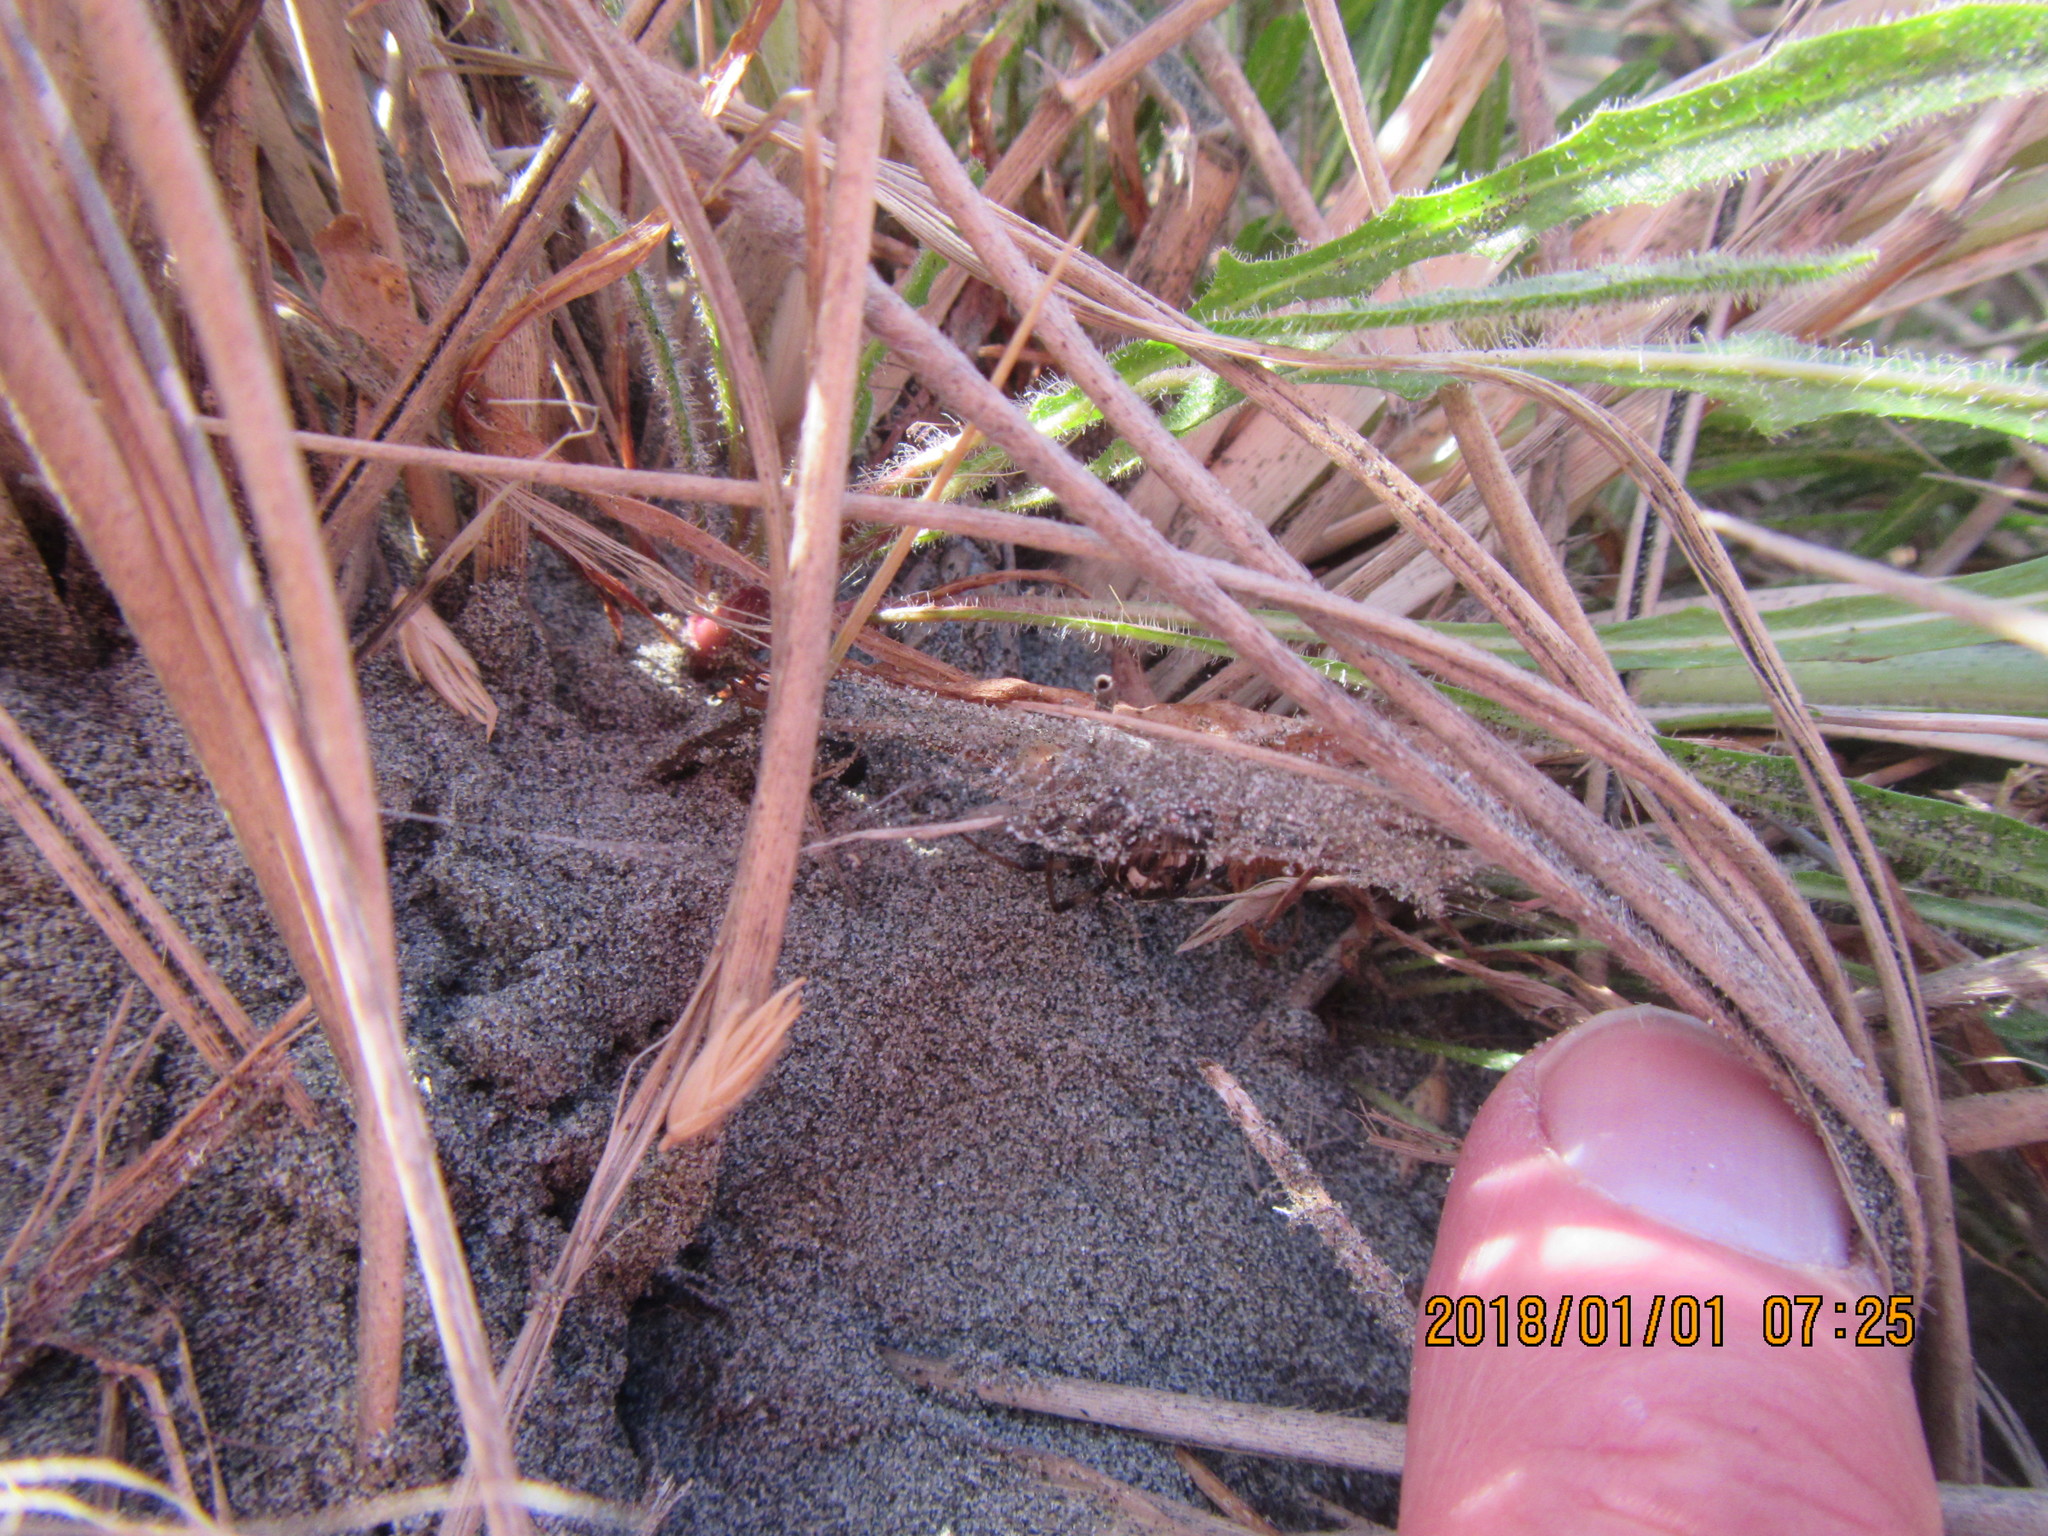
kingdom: Animalia
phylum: Arthropoda
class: Arachnida
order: Araneae
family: Theridiidae
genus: Latrodectus
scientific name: Latrodectus katipo
